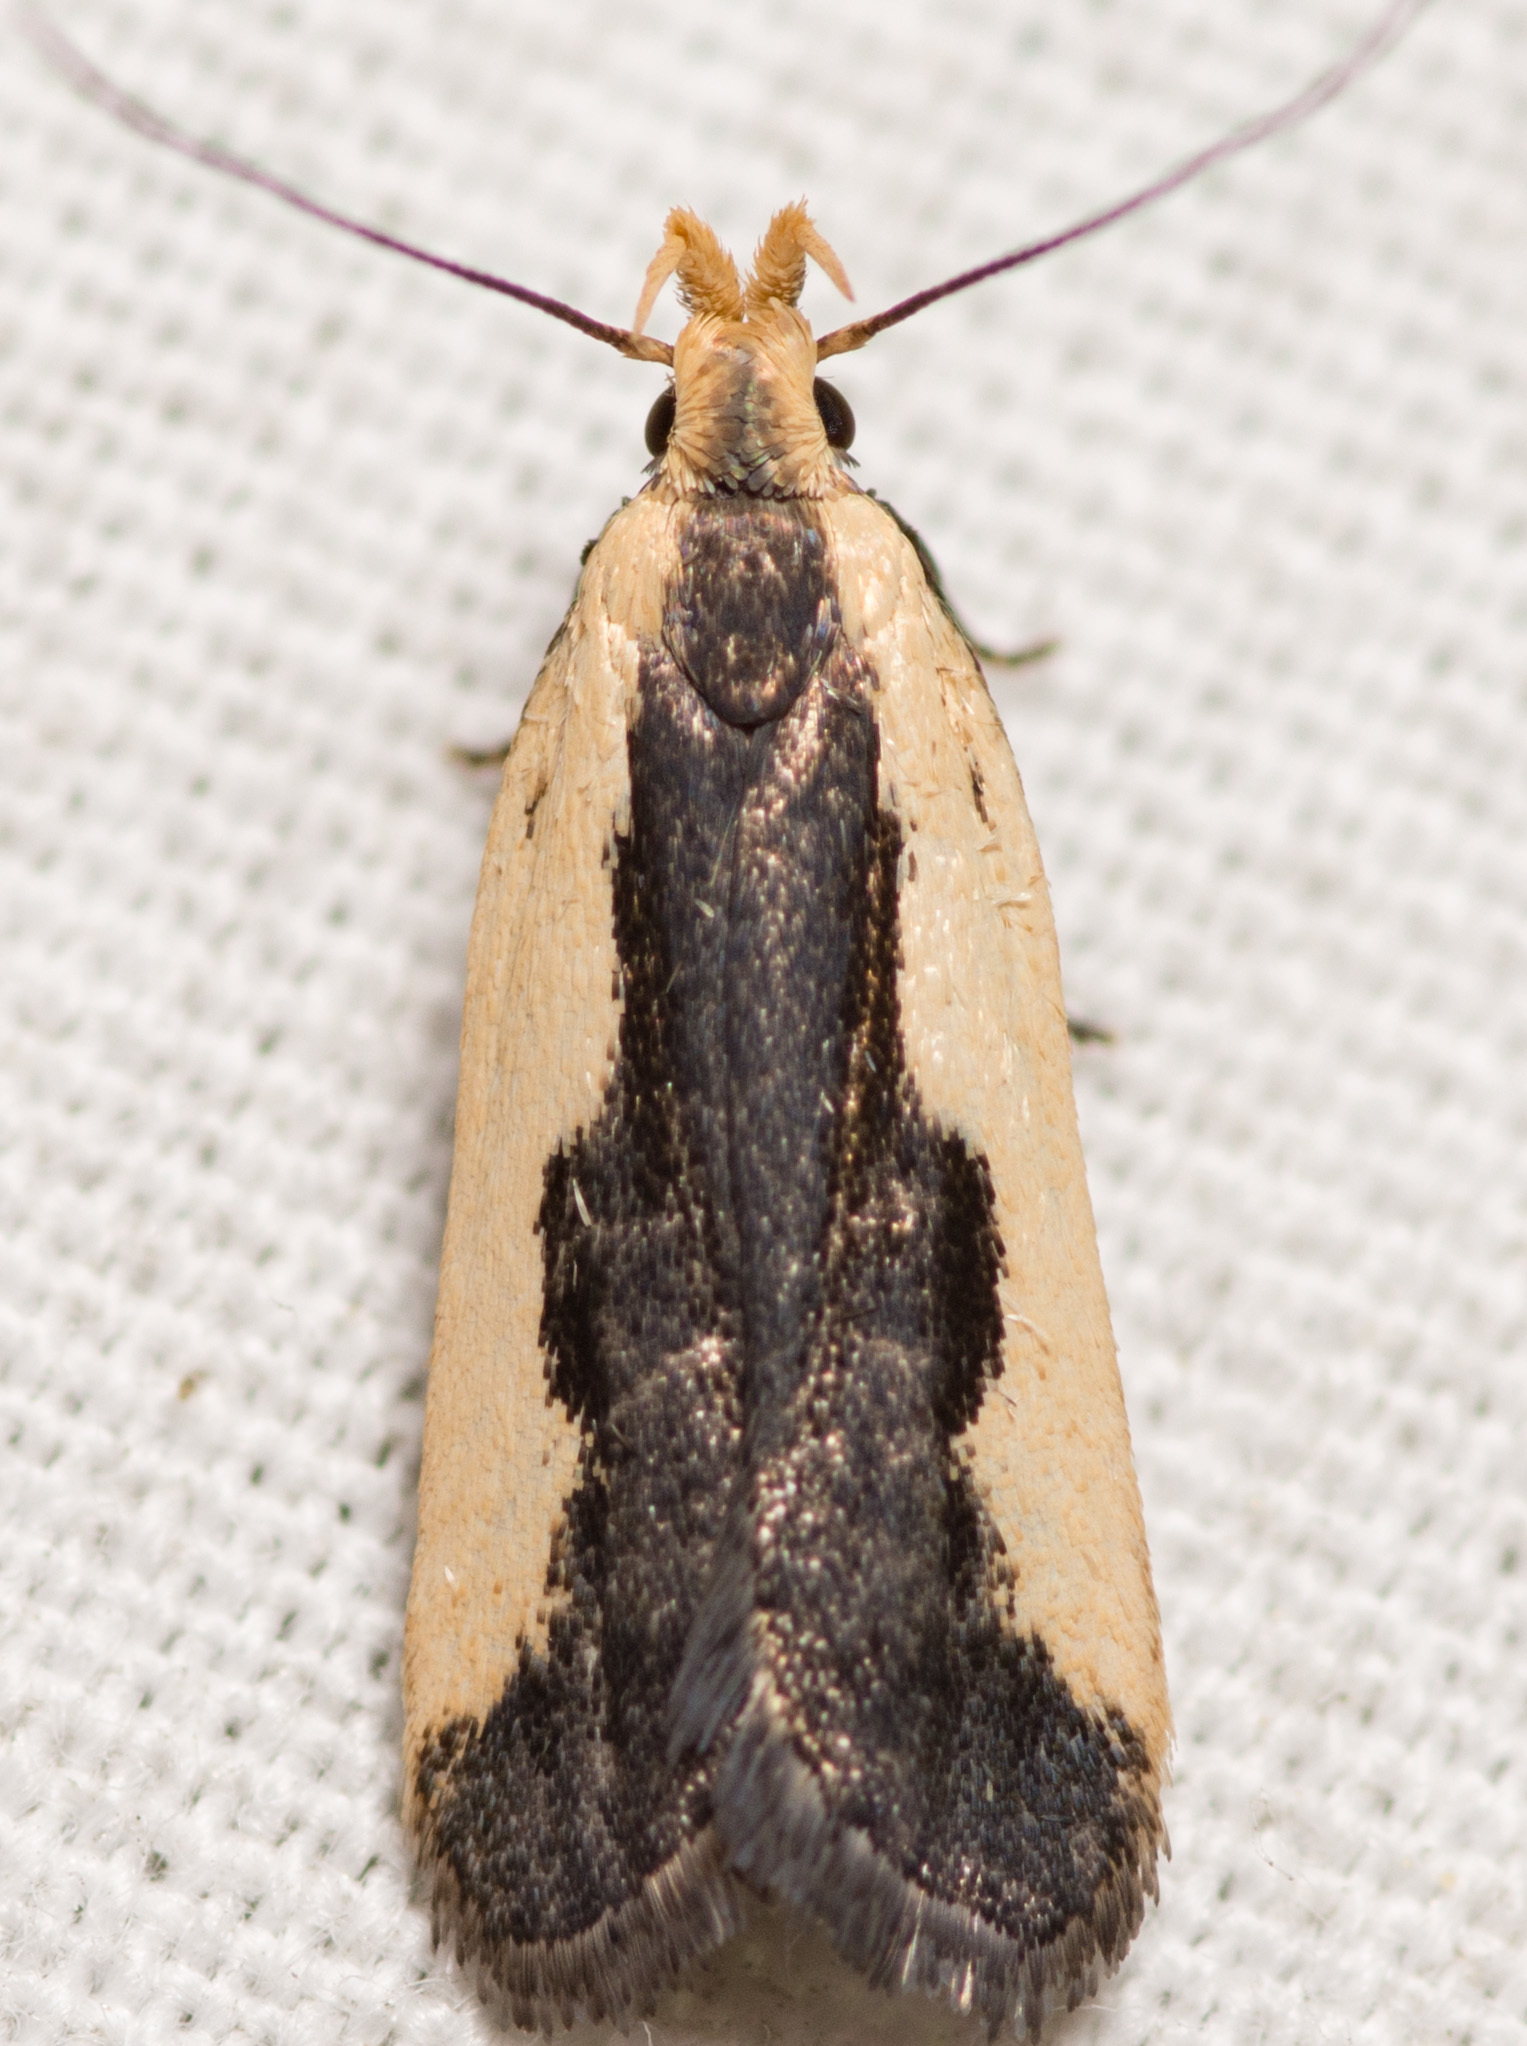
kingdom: Animalia
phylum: Arthropoda
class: Insecta
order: Lepidoptera
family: Gelechiidae
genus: Dichomeris
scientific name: Dichomeris inserrata
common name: Indented dichomeris moth
